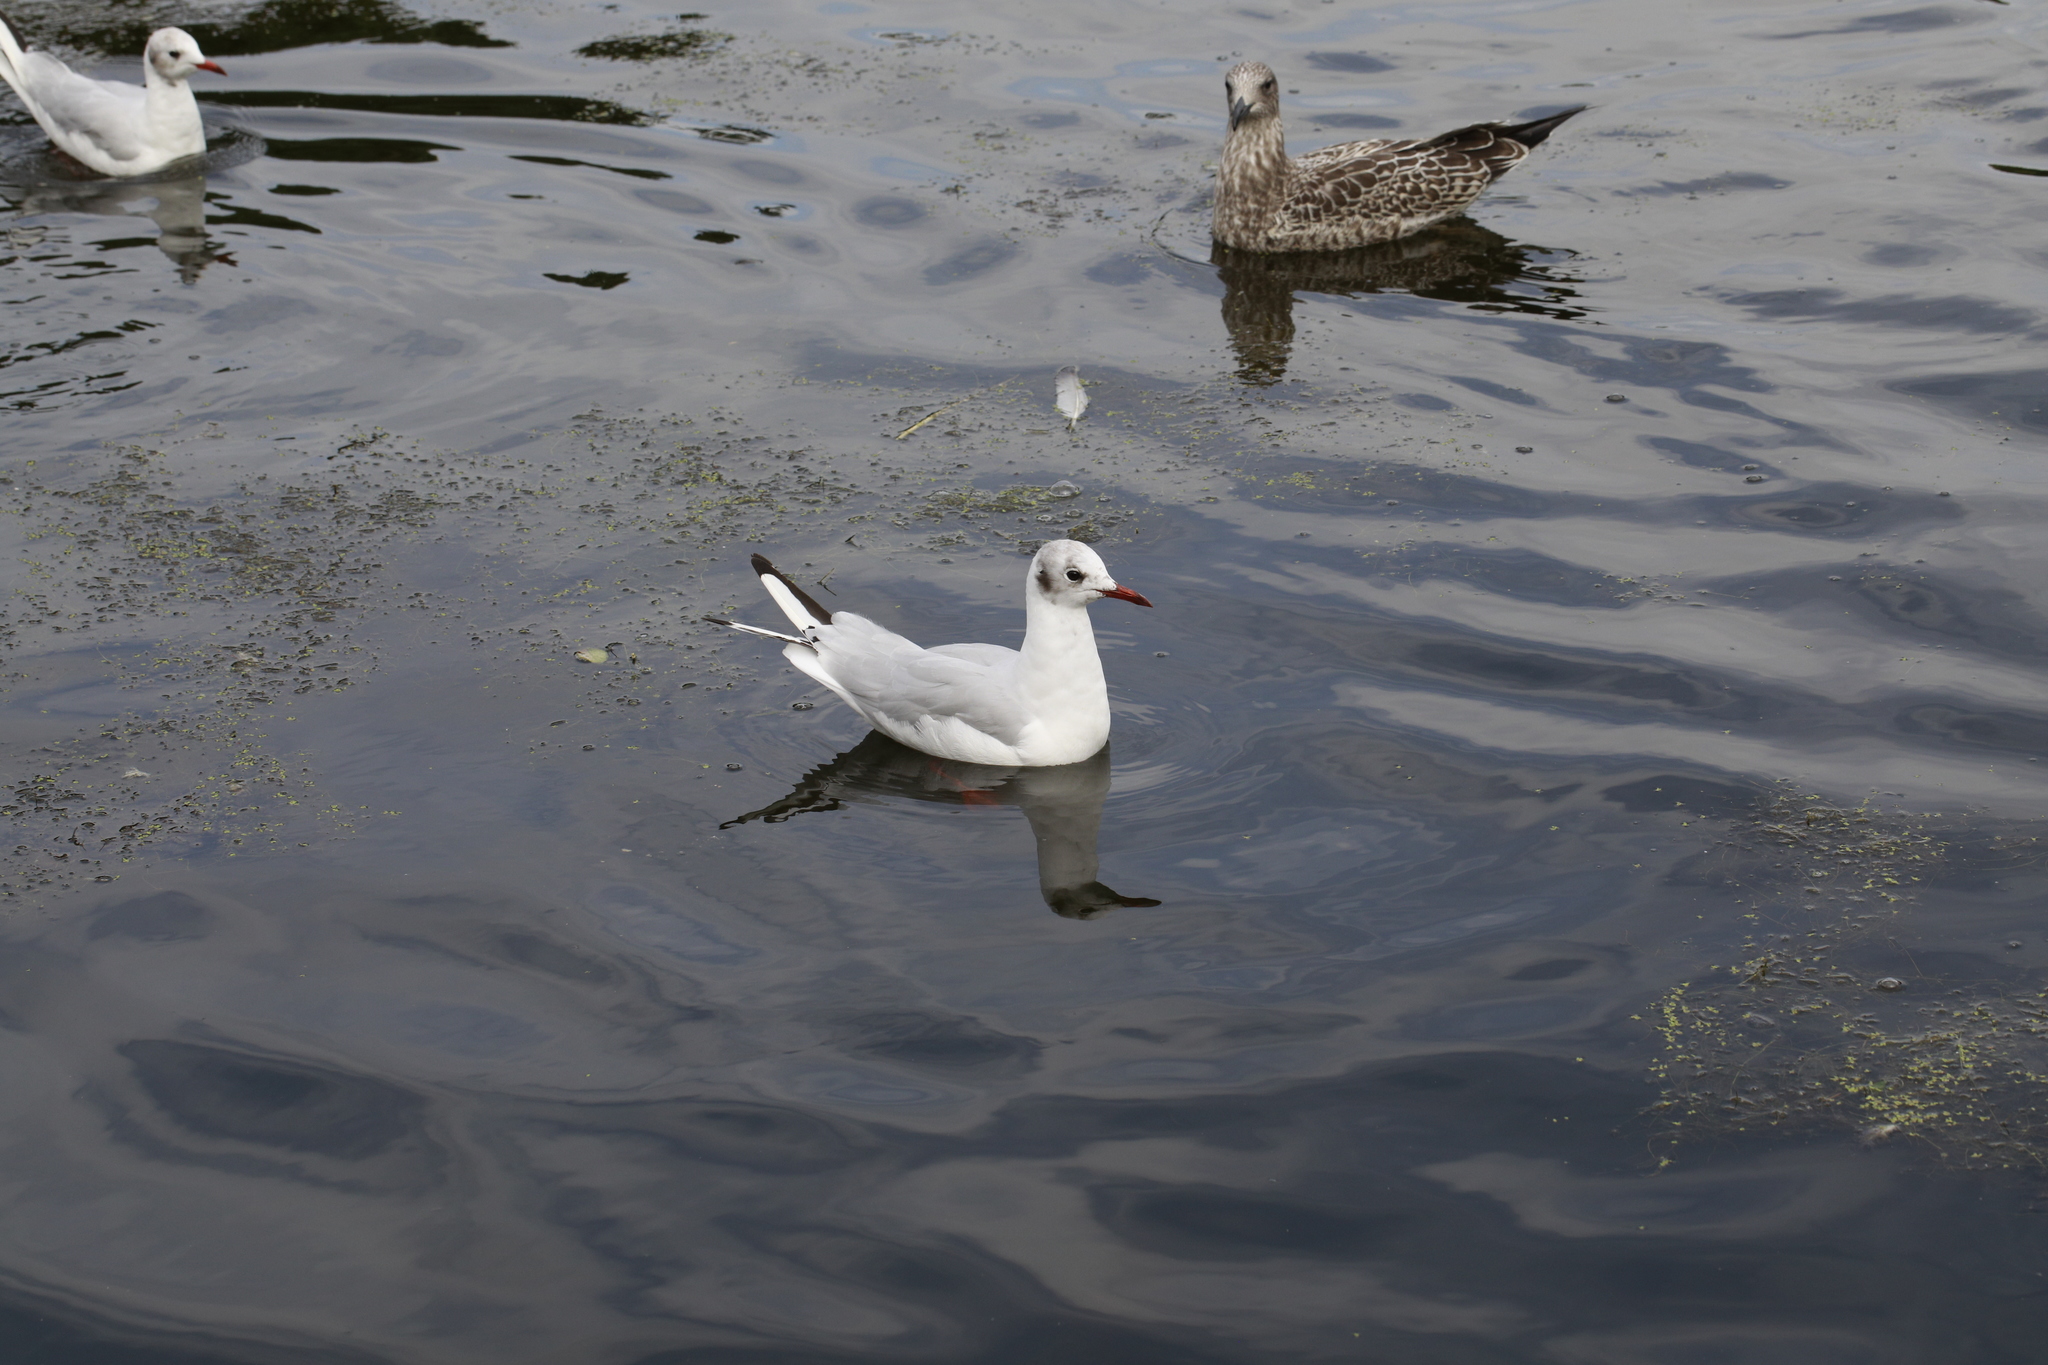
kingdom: Animalia
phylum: Chordata
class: Aves
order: Charadriiformes
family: Laridae
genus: Chroicocephalus
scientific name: Chroicocephalus ridibundus
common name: Black-headed gull
